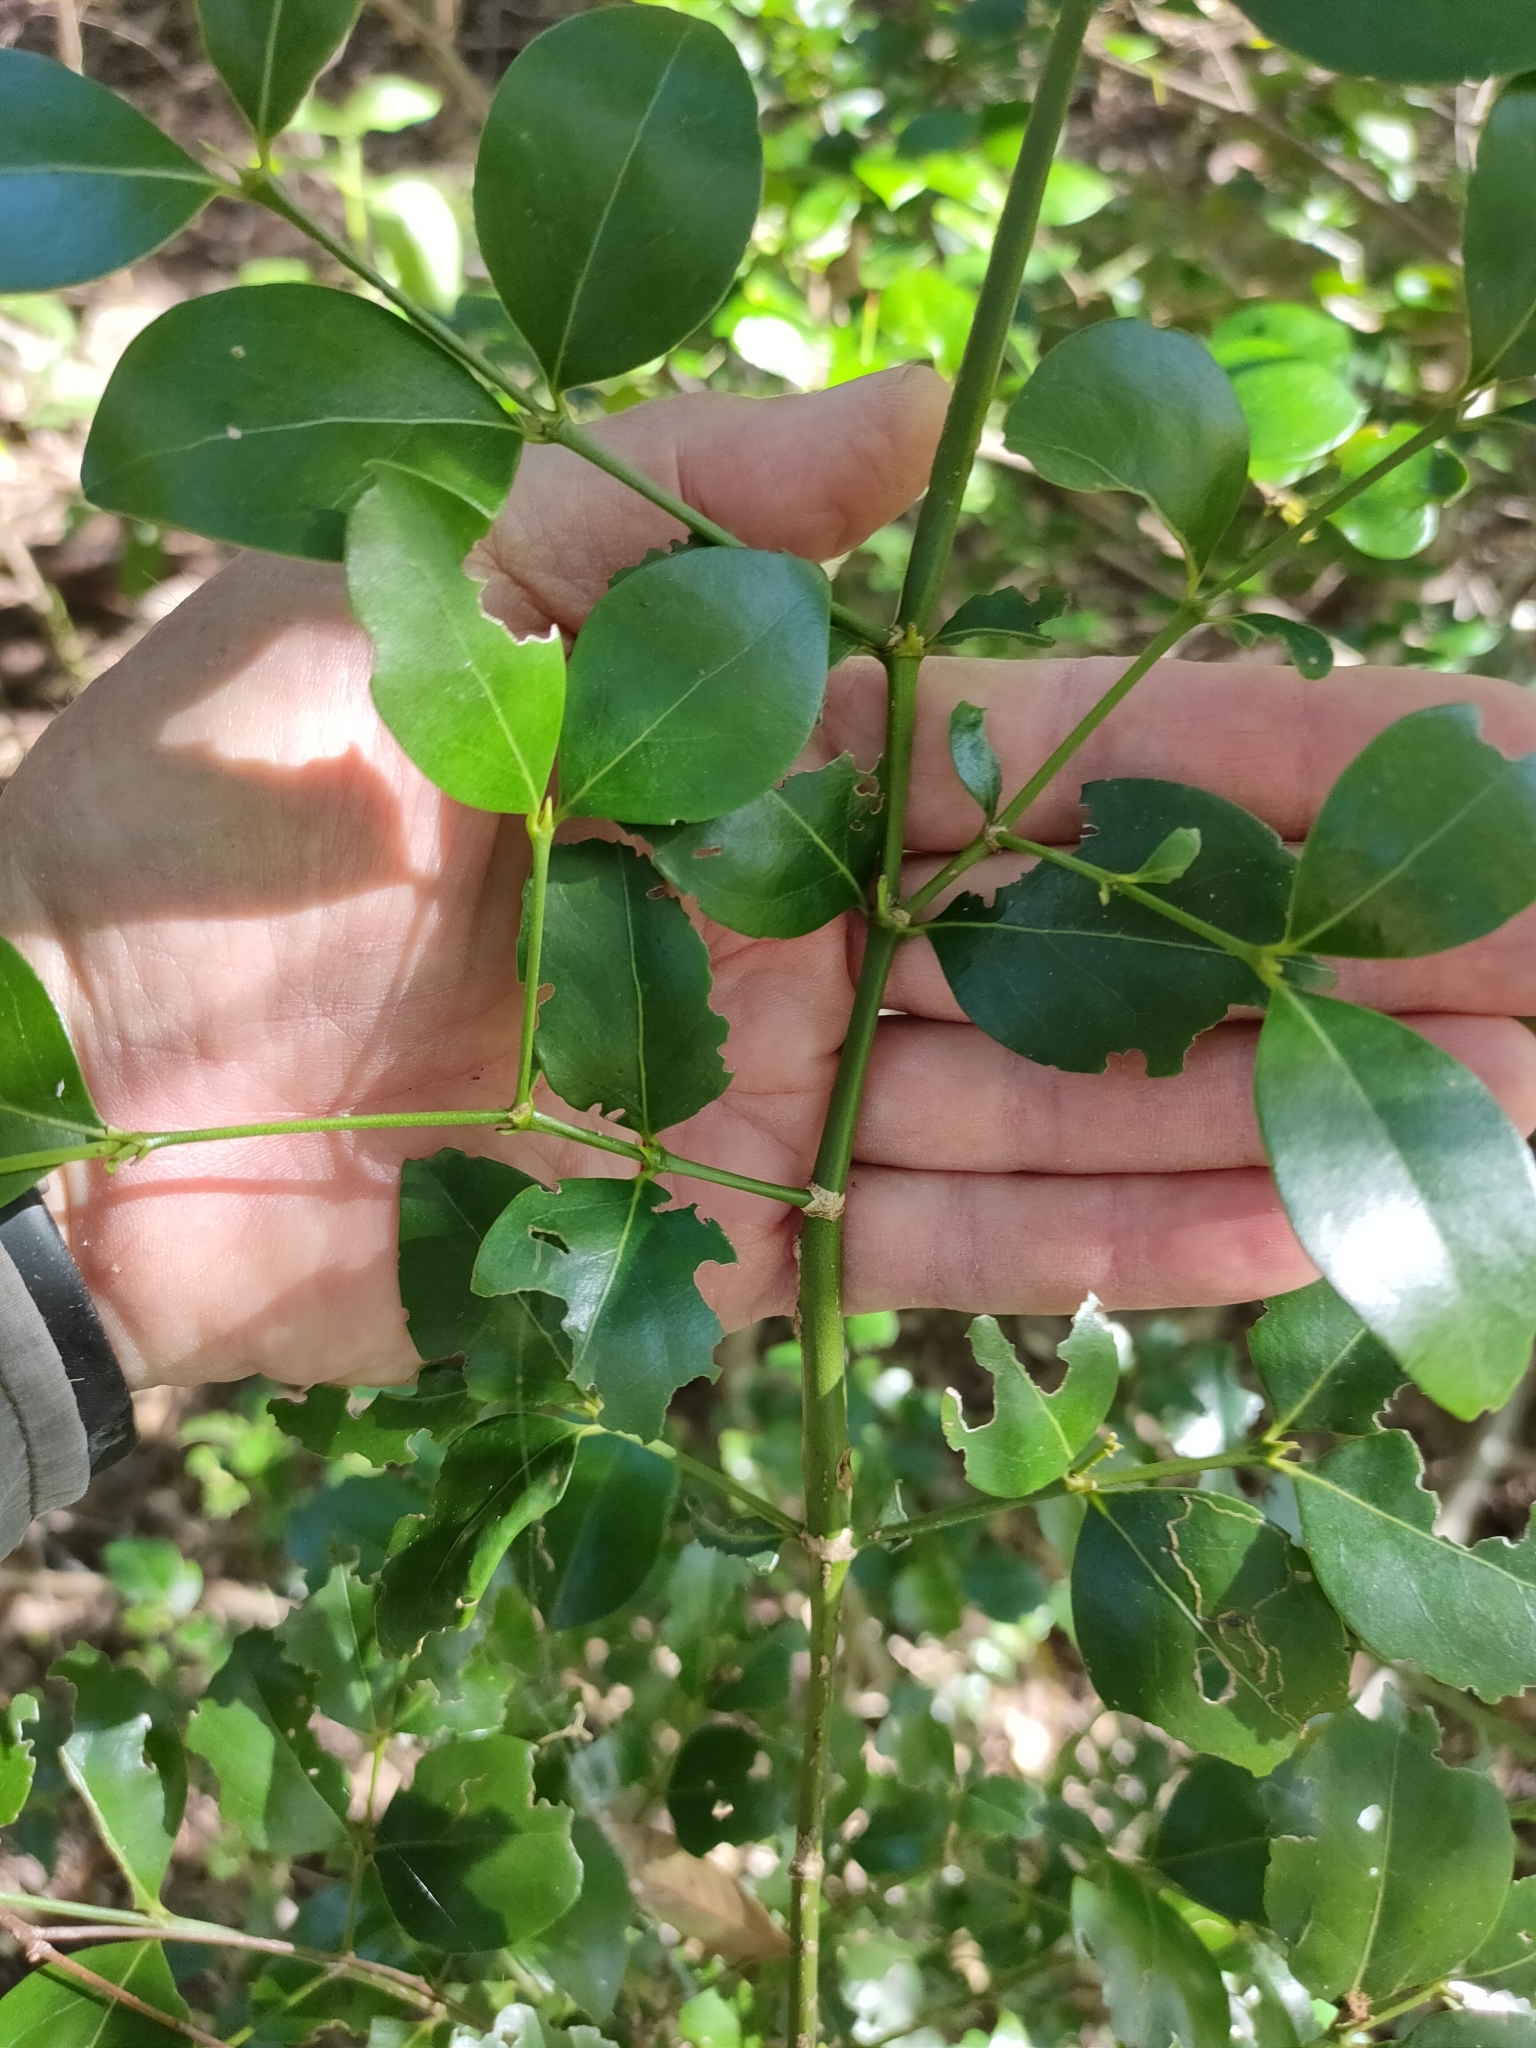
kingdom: Plantae
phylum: Tracheophyta
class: Magnoliopsida
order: Gentianales
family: Rubiaceae
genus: Psydrax
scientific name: Psydrax odoratus
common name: Alahe'e
